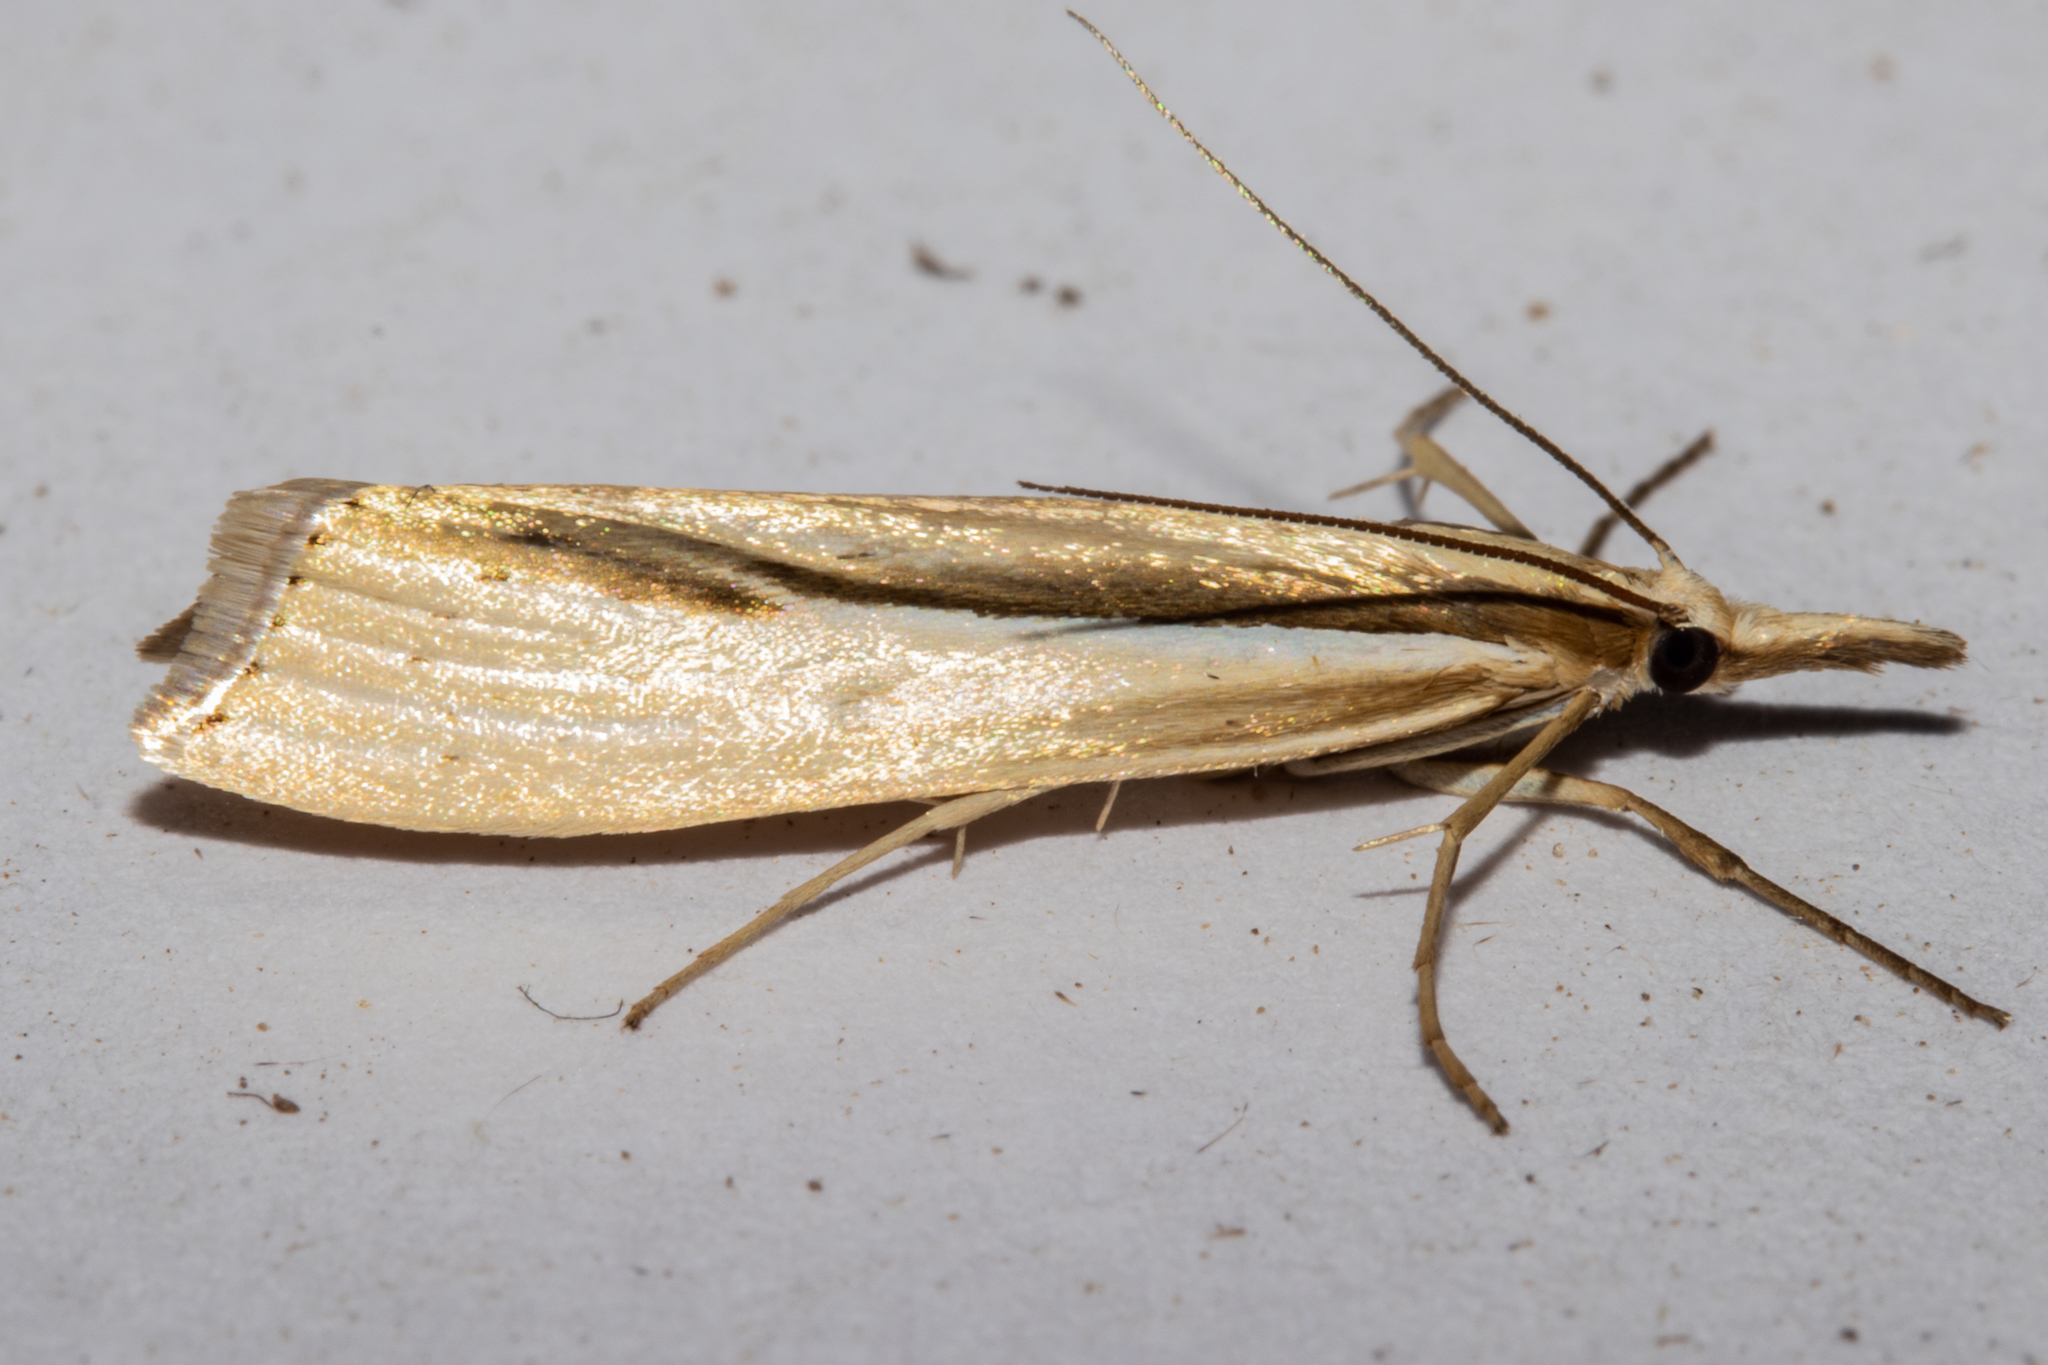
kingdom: Animalia
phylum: Arthropoda
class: Insecta
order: Lepidoptera
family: Crambidae
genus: Orocrambus
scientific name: Orocrambus ramosellus
